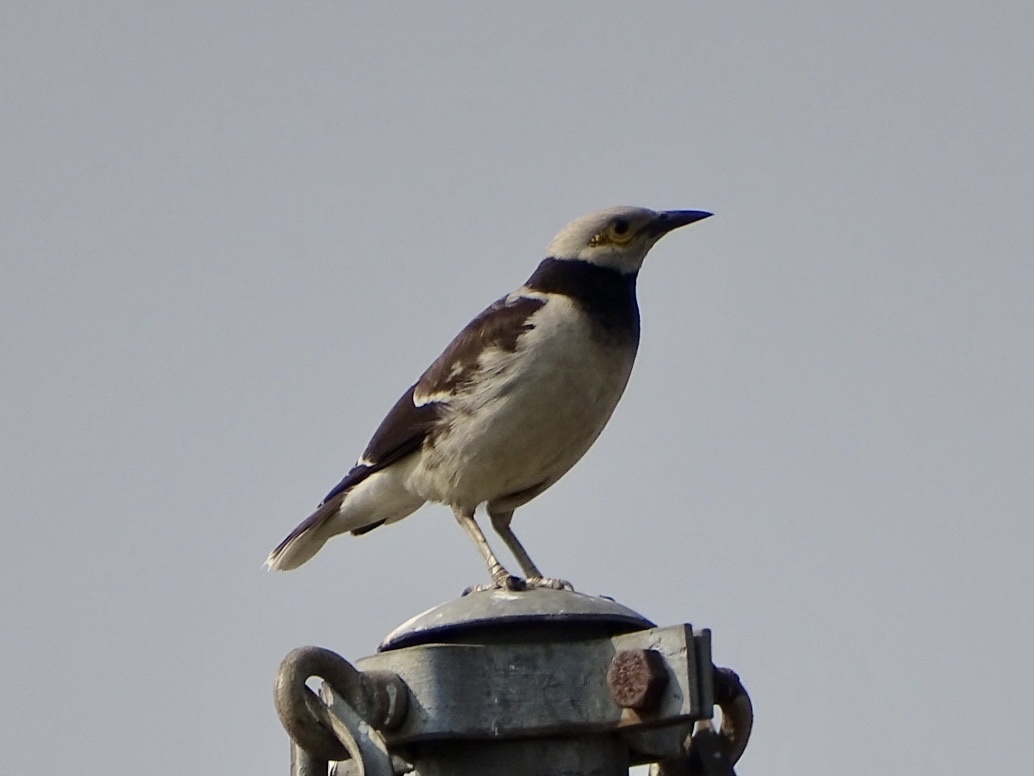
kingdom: Animalia
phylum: Chordata
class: Aves
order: Passeriformes
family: Sturnidae
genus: Gracupica
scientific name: Gracupica nigricollis
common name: Black-collared starling
